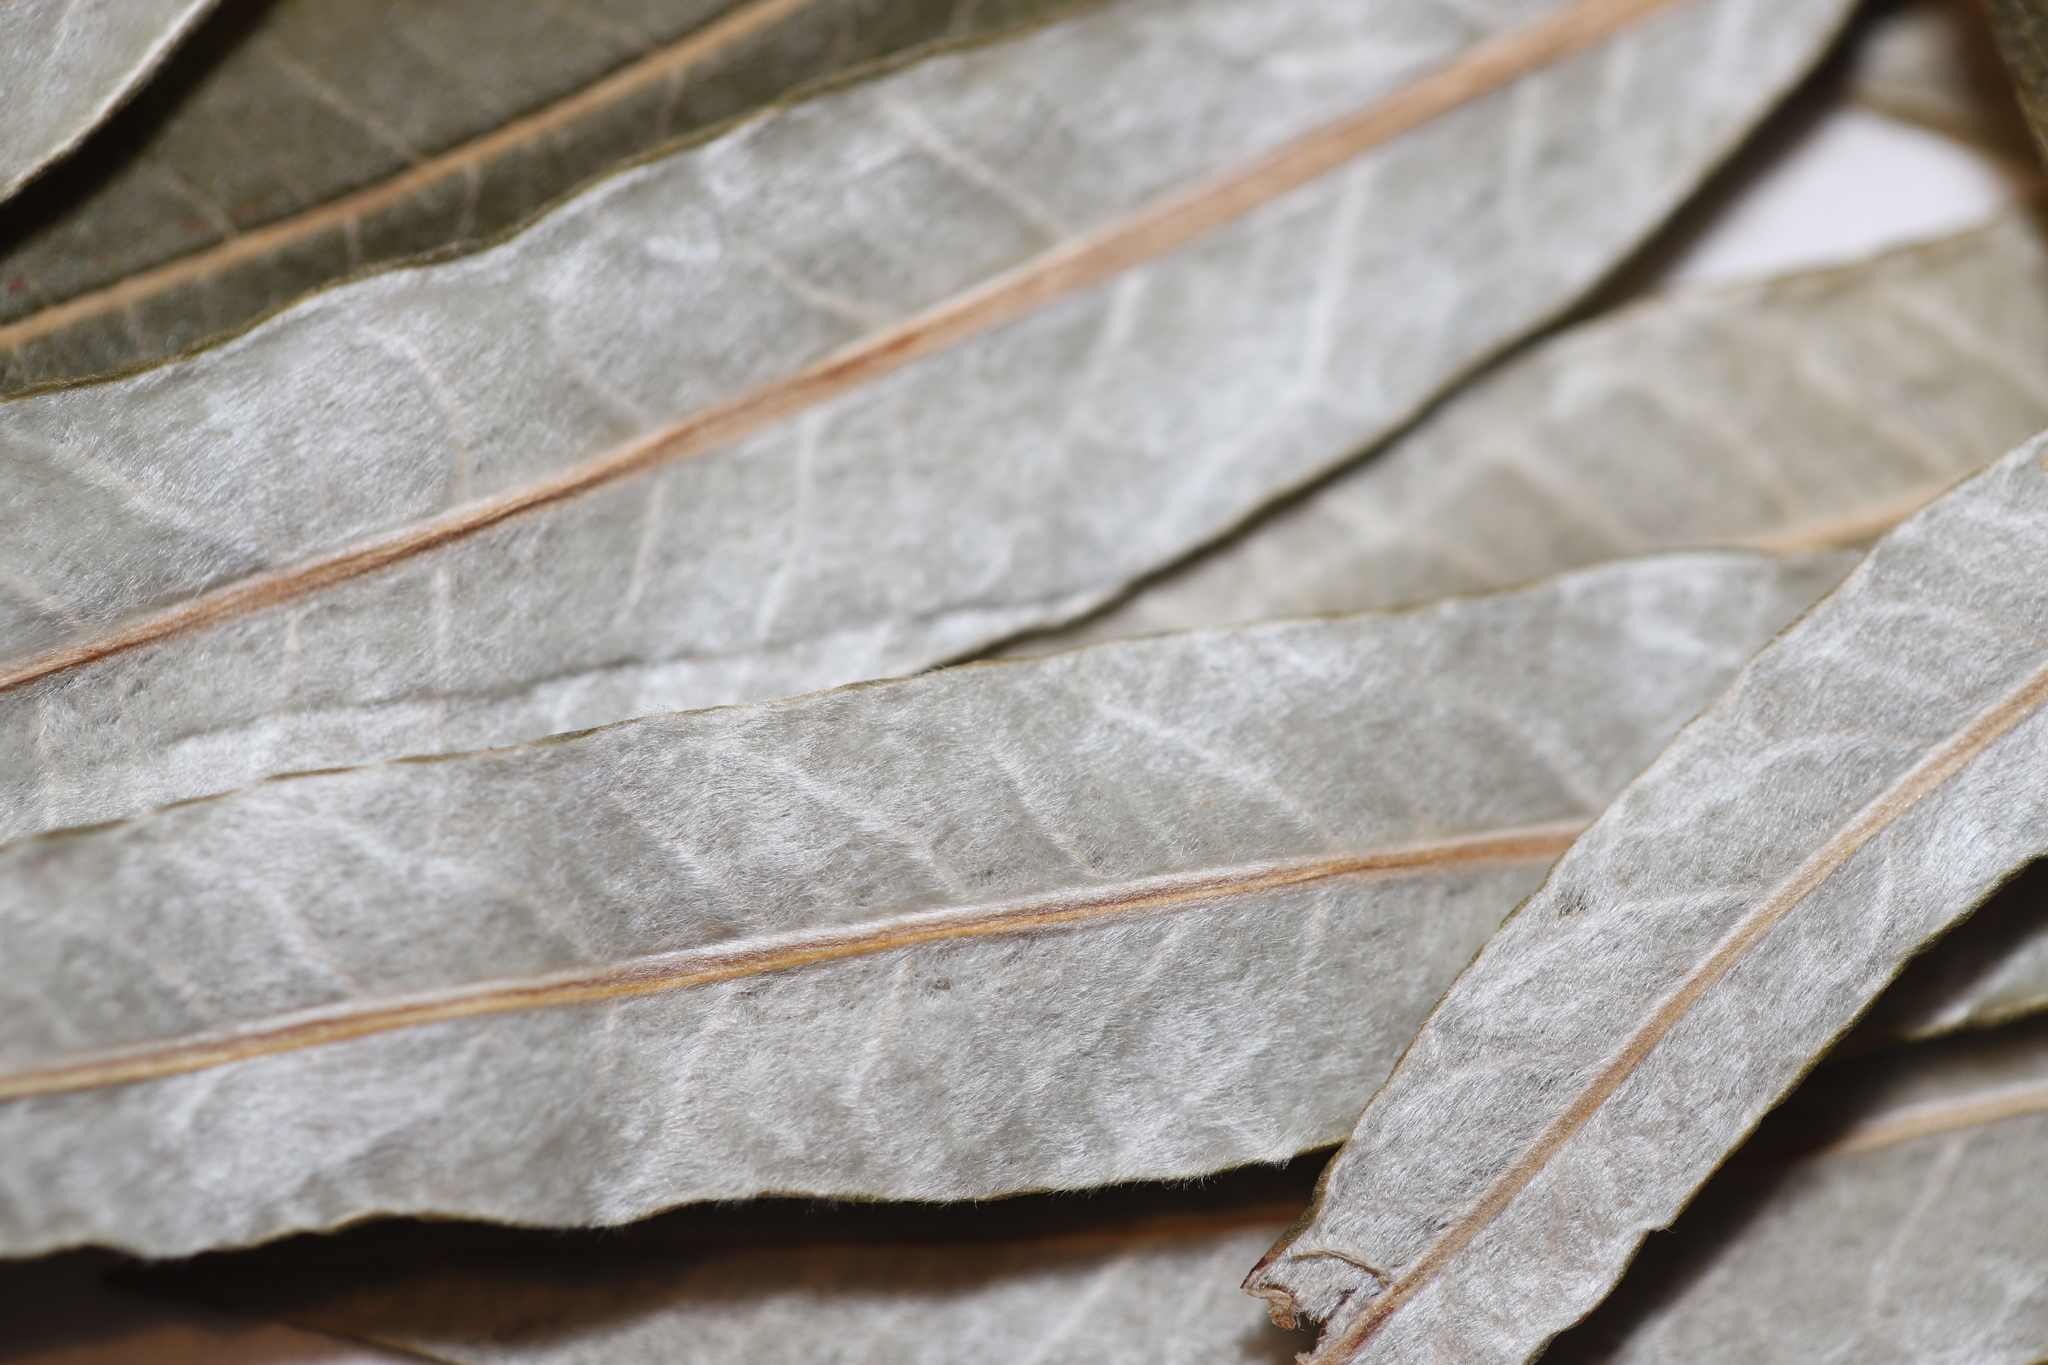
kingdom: Plantae
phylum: Tracheophyta
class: Magnoliopsida
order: Malpighiales
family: Salicaceae
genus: Salix
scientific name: Salix pellita
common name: Satiny willow
